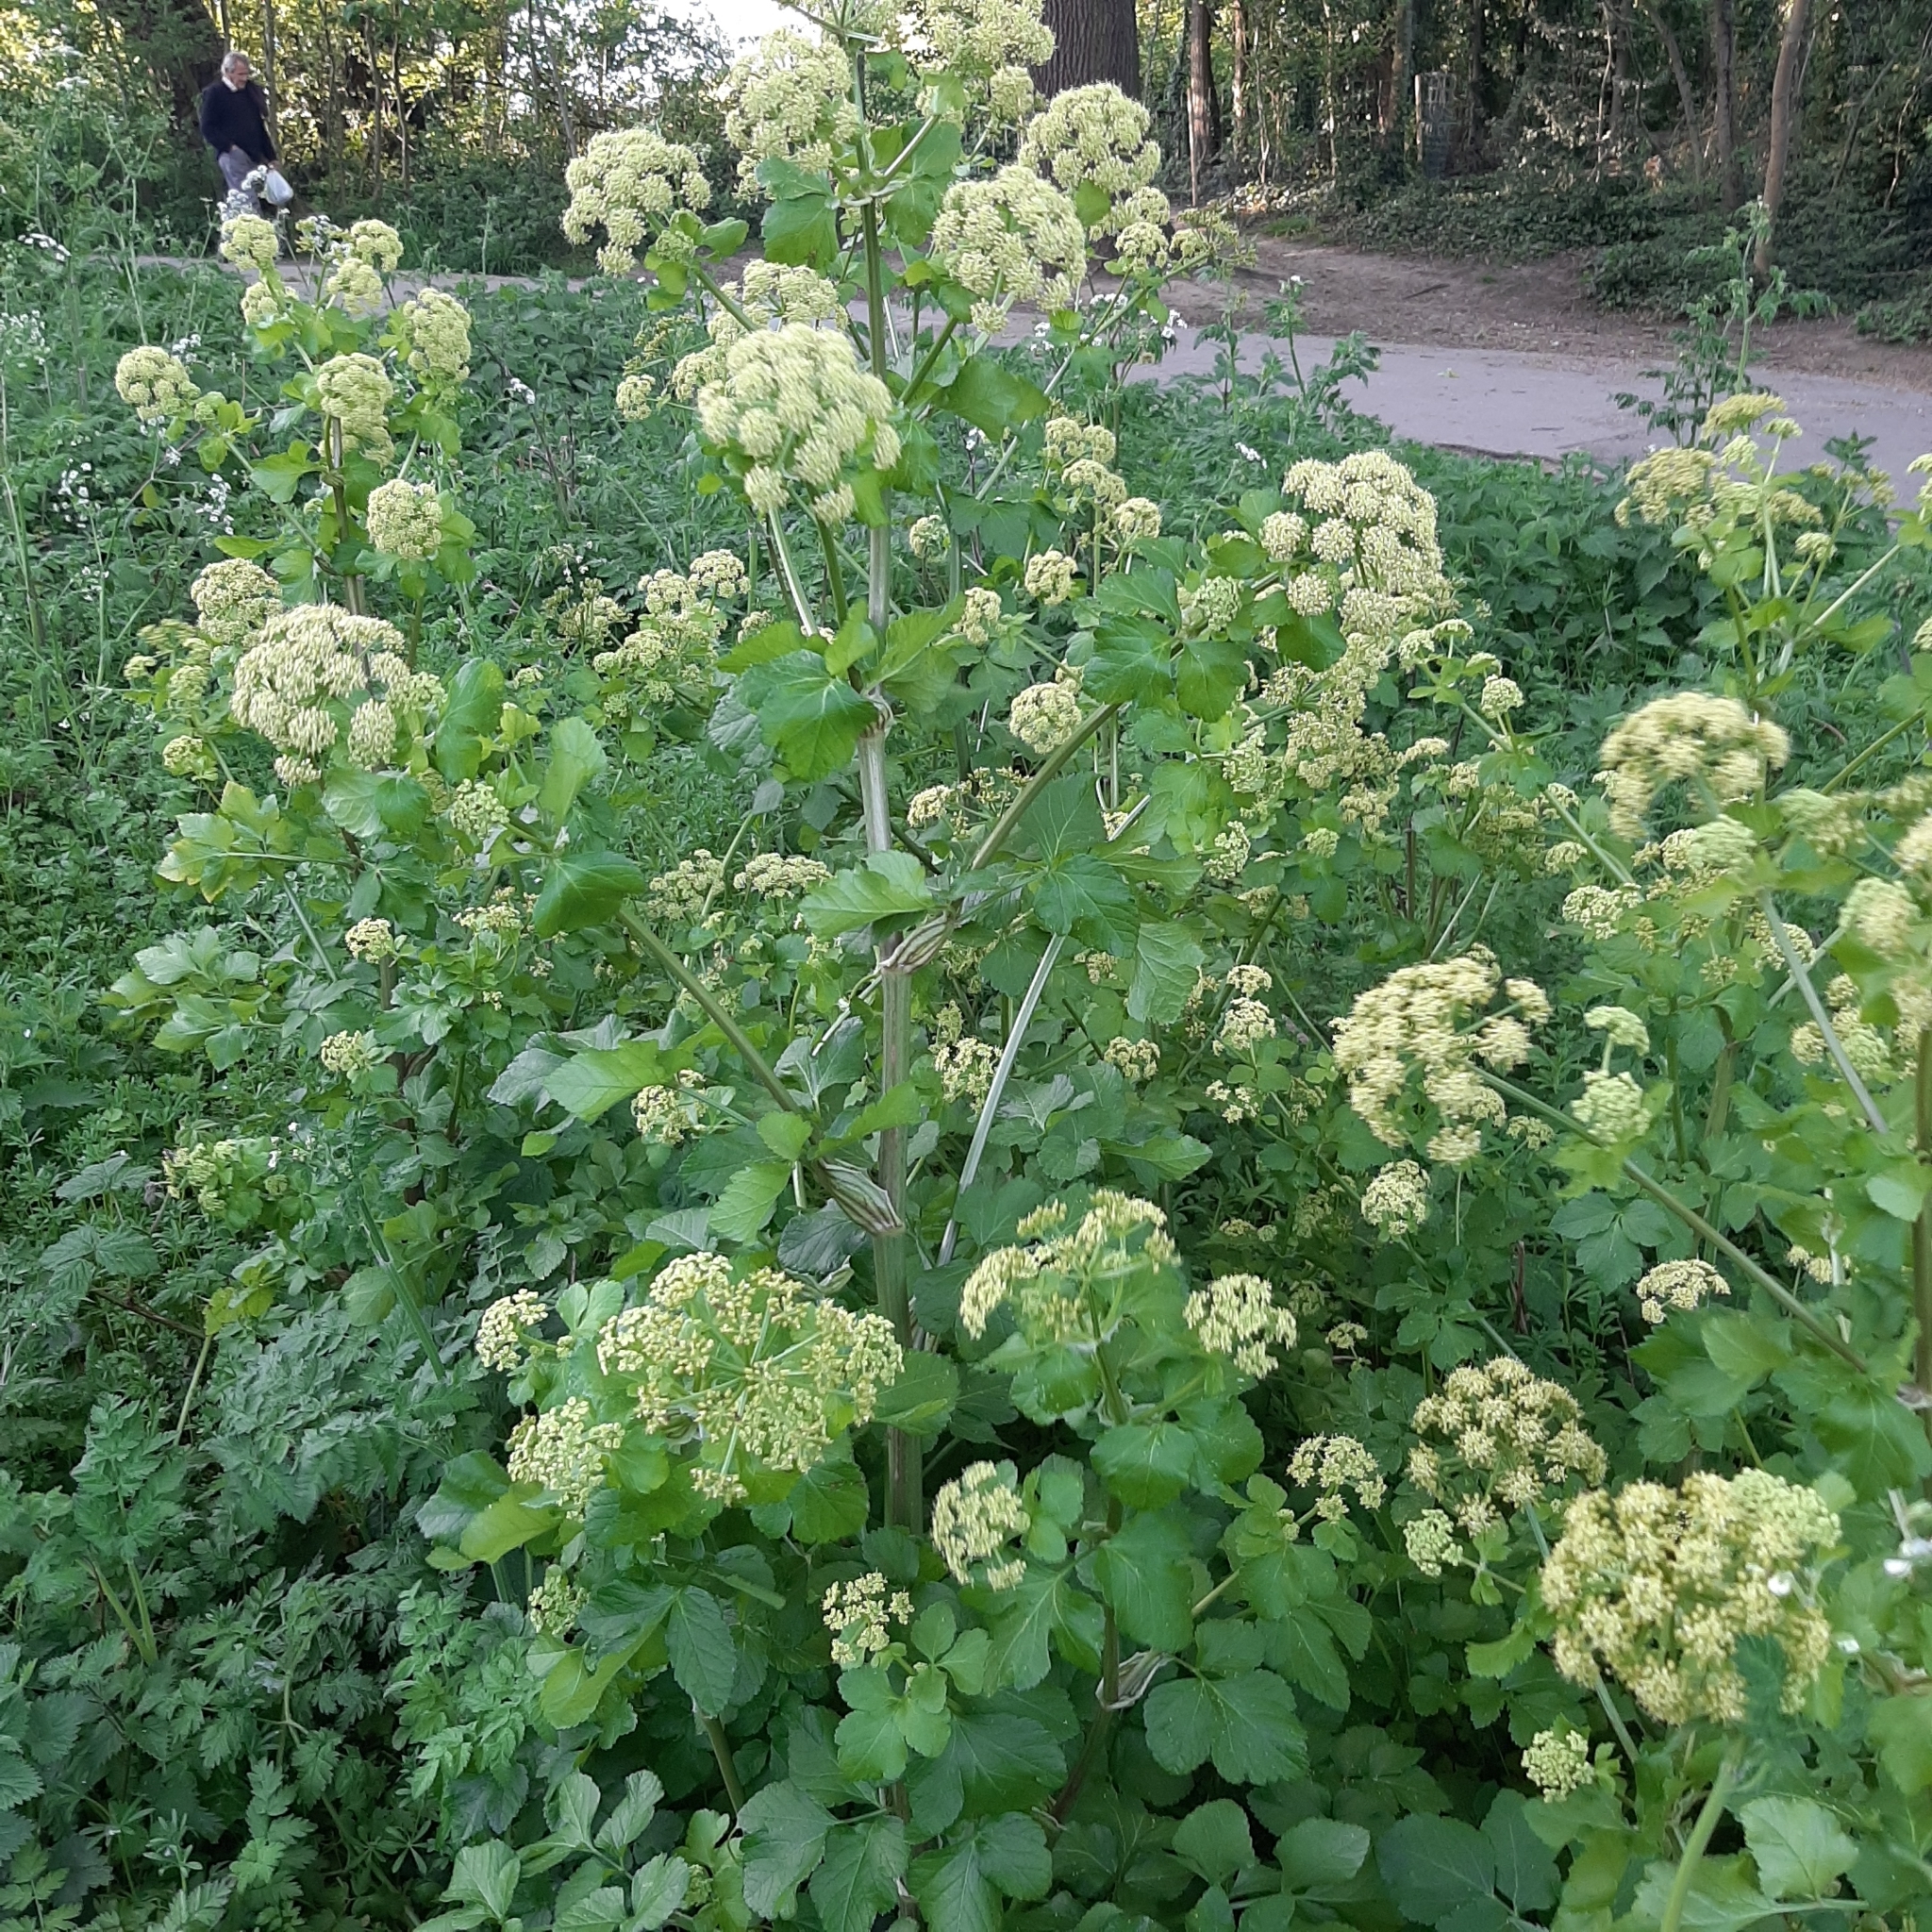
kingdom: Plantae
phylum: Tracheophyta
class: Magnoliopsida
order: Apiales
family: Apiaceae
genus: Smyrnium
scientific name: Smyrnium olusatrum
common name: Alexanders
